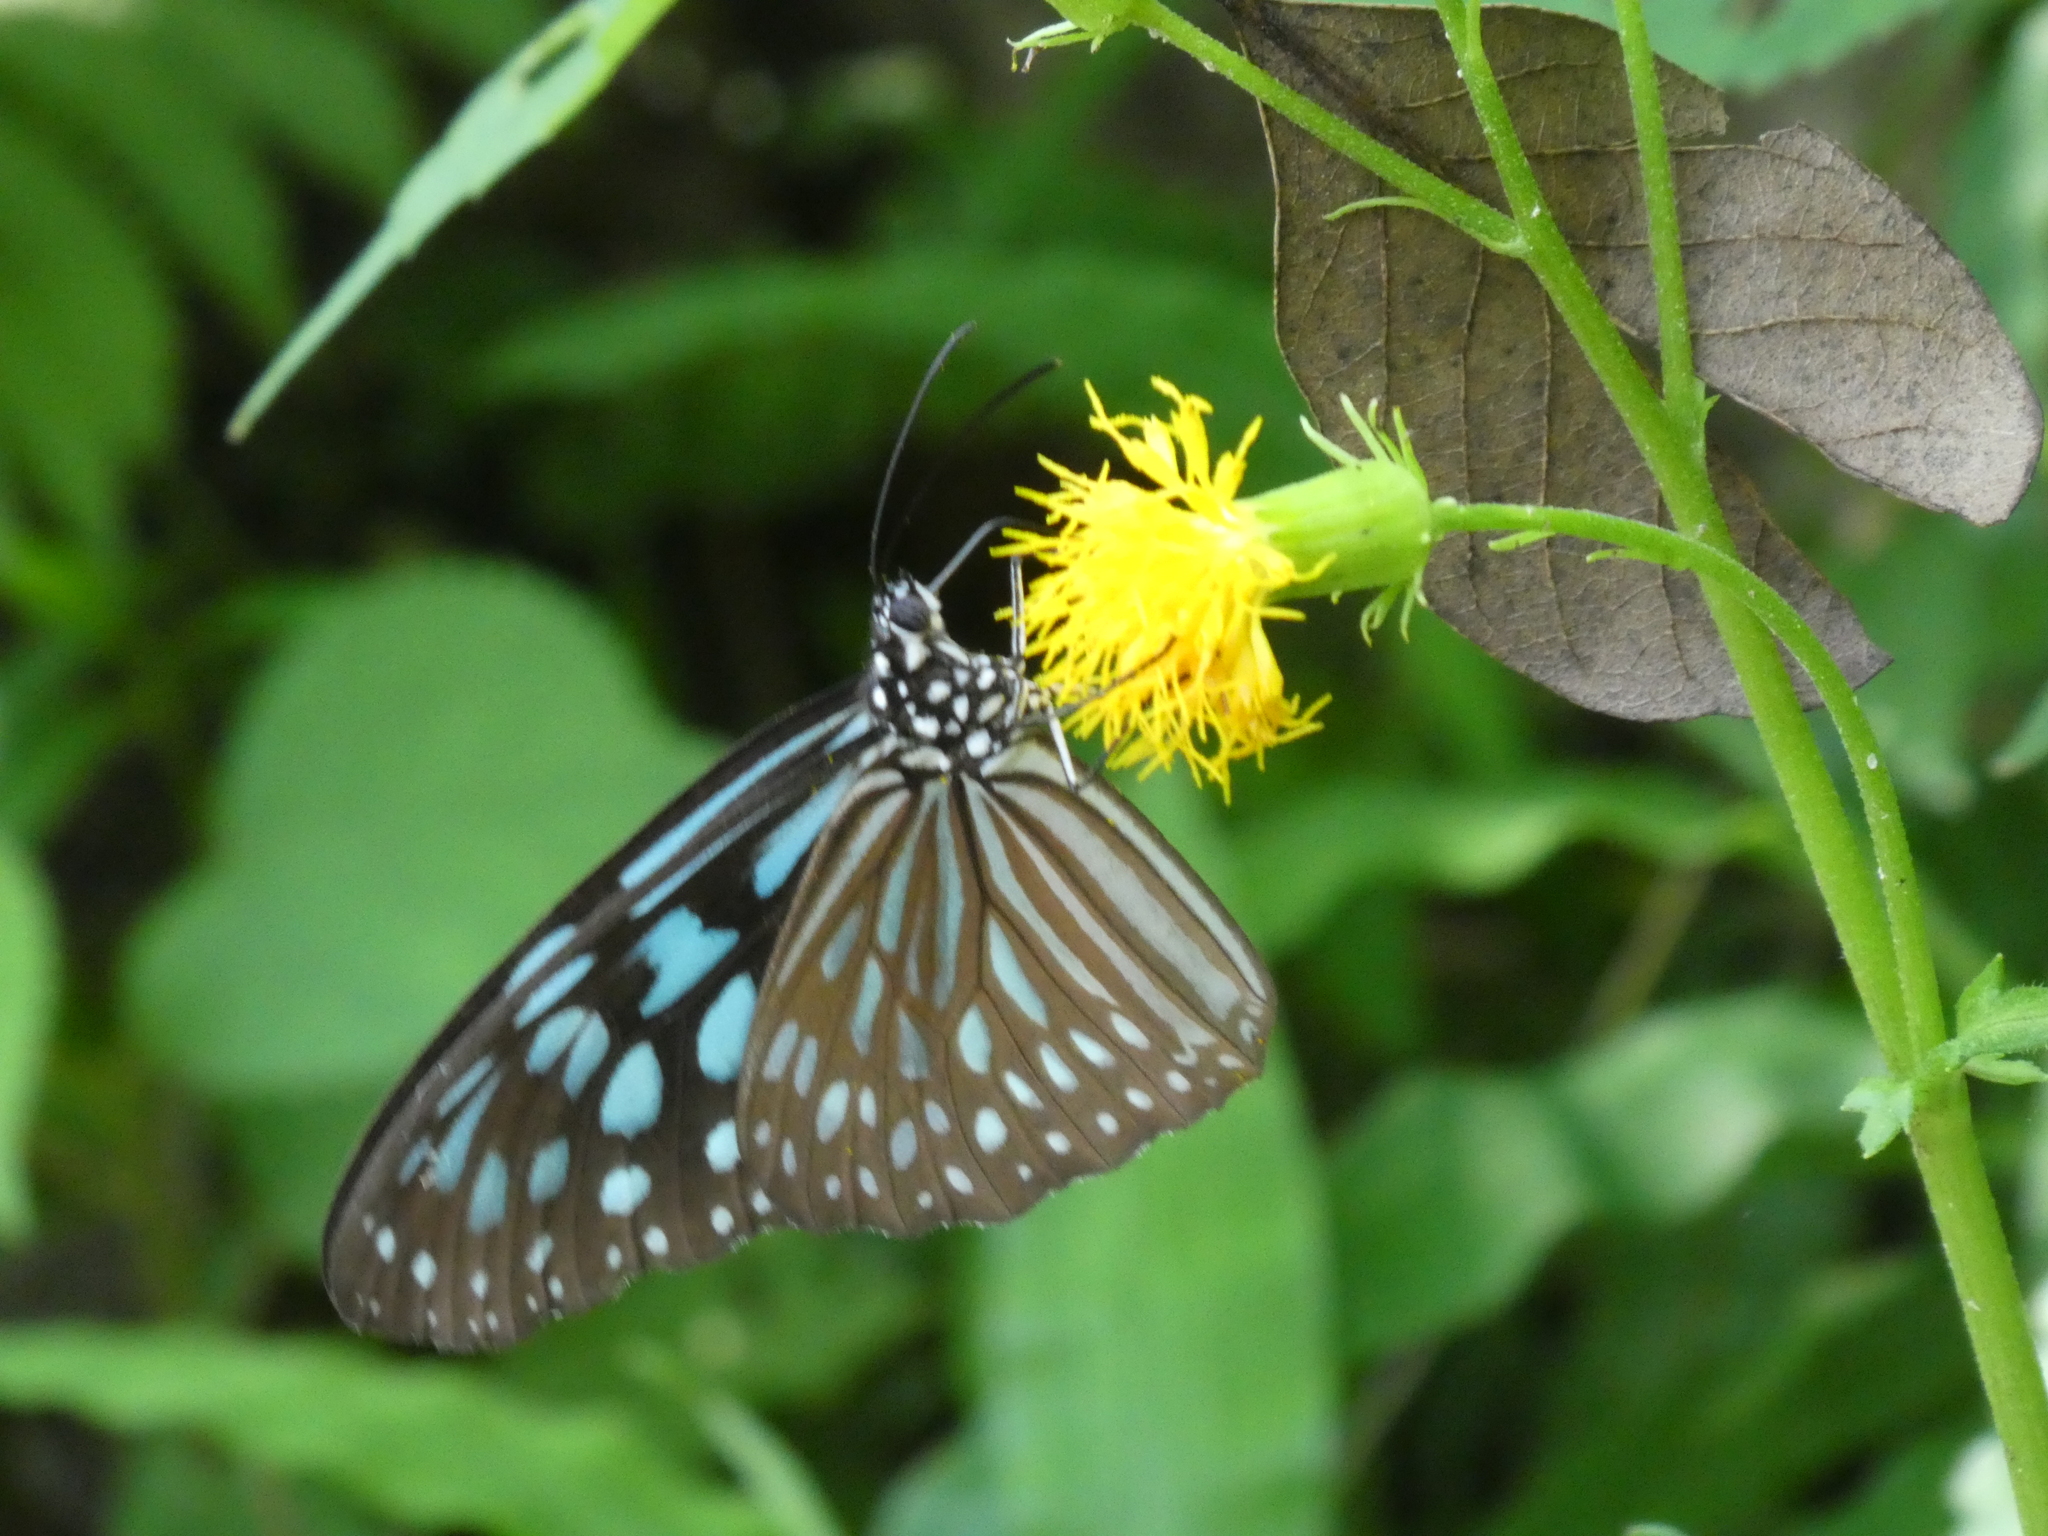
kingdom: Animalia
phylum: Arthropoda
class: Insecta
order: Lepidoptera
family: Nymphalidae
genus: Ideopsis
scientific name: Ideopsis similis
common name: Ceylon blue glassy tiger
